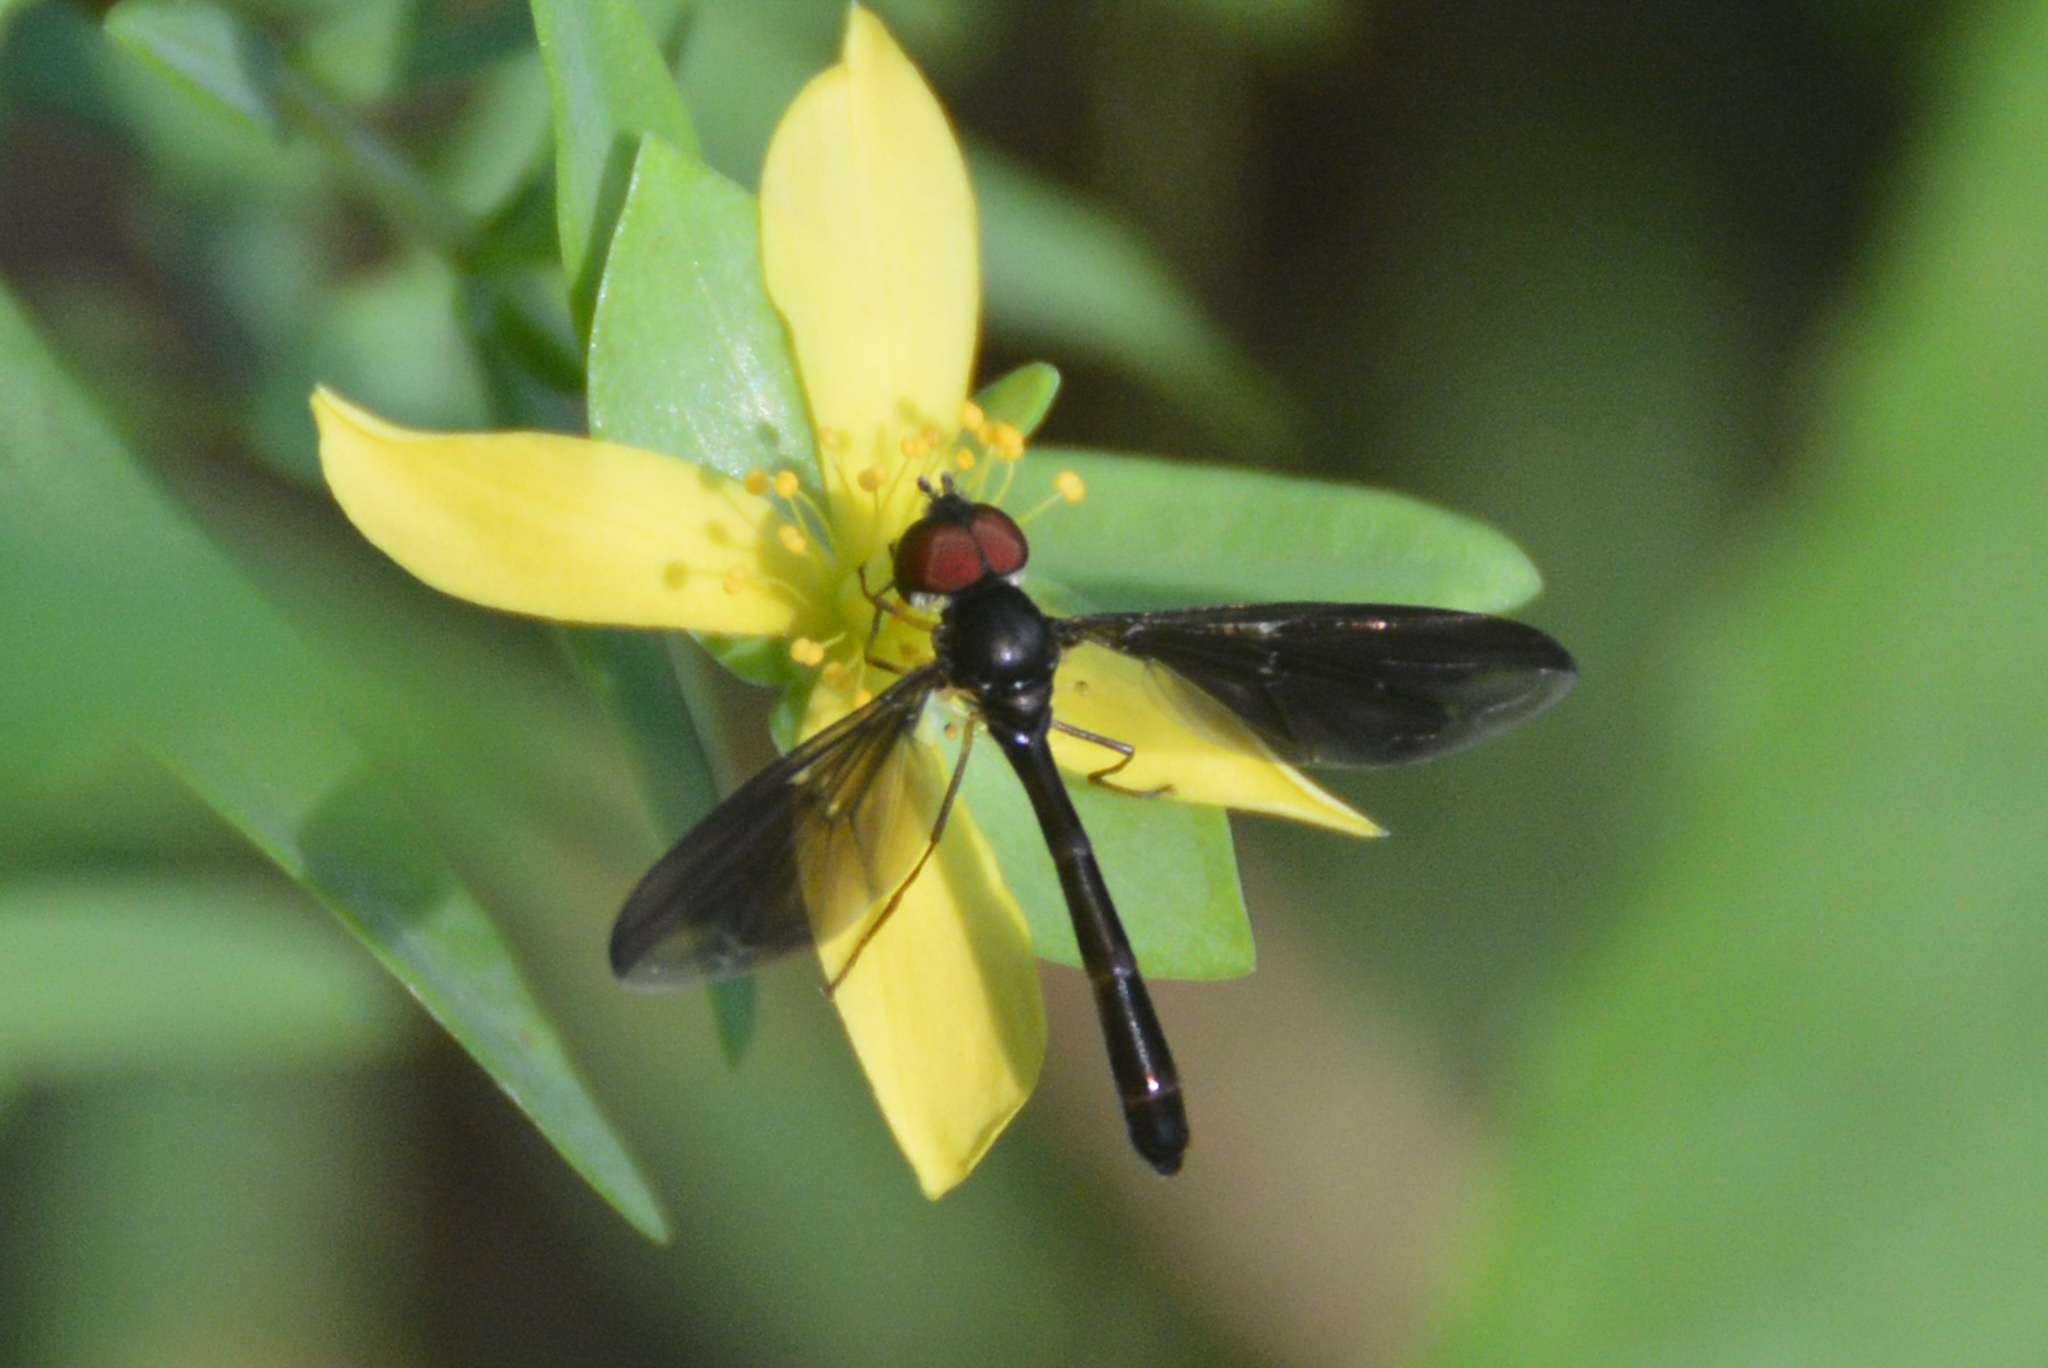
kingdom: Animalia
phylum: Arthropoda
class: Insecta
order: Diptera
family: Syrphidae
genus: Ocyptamus
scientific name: Ocyptamus fuscipennis
